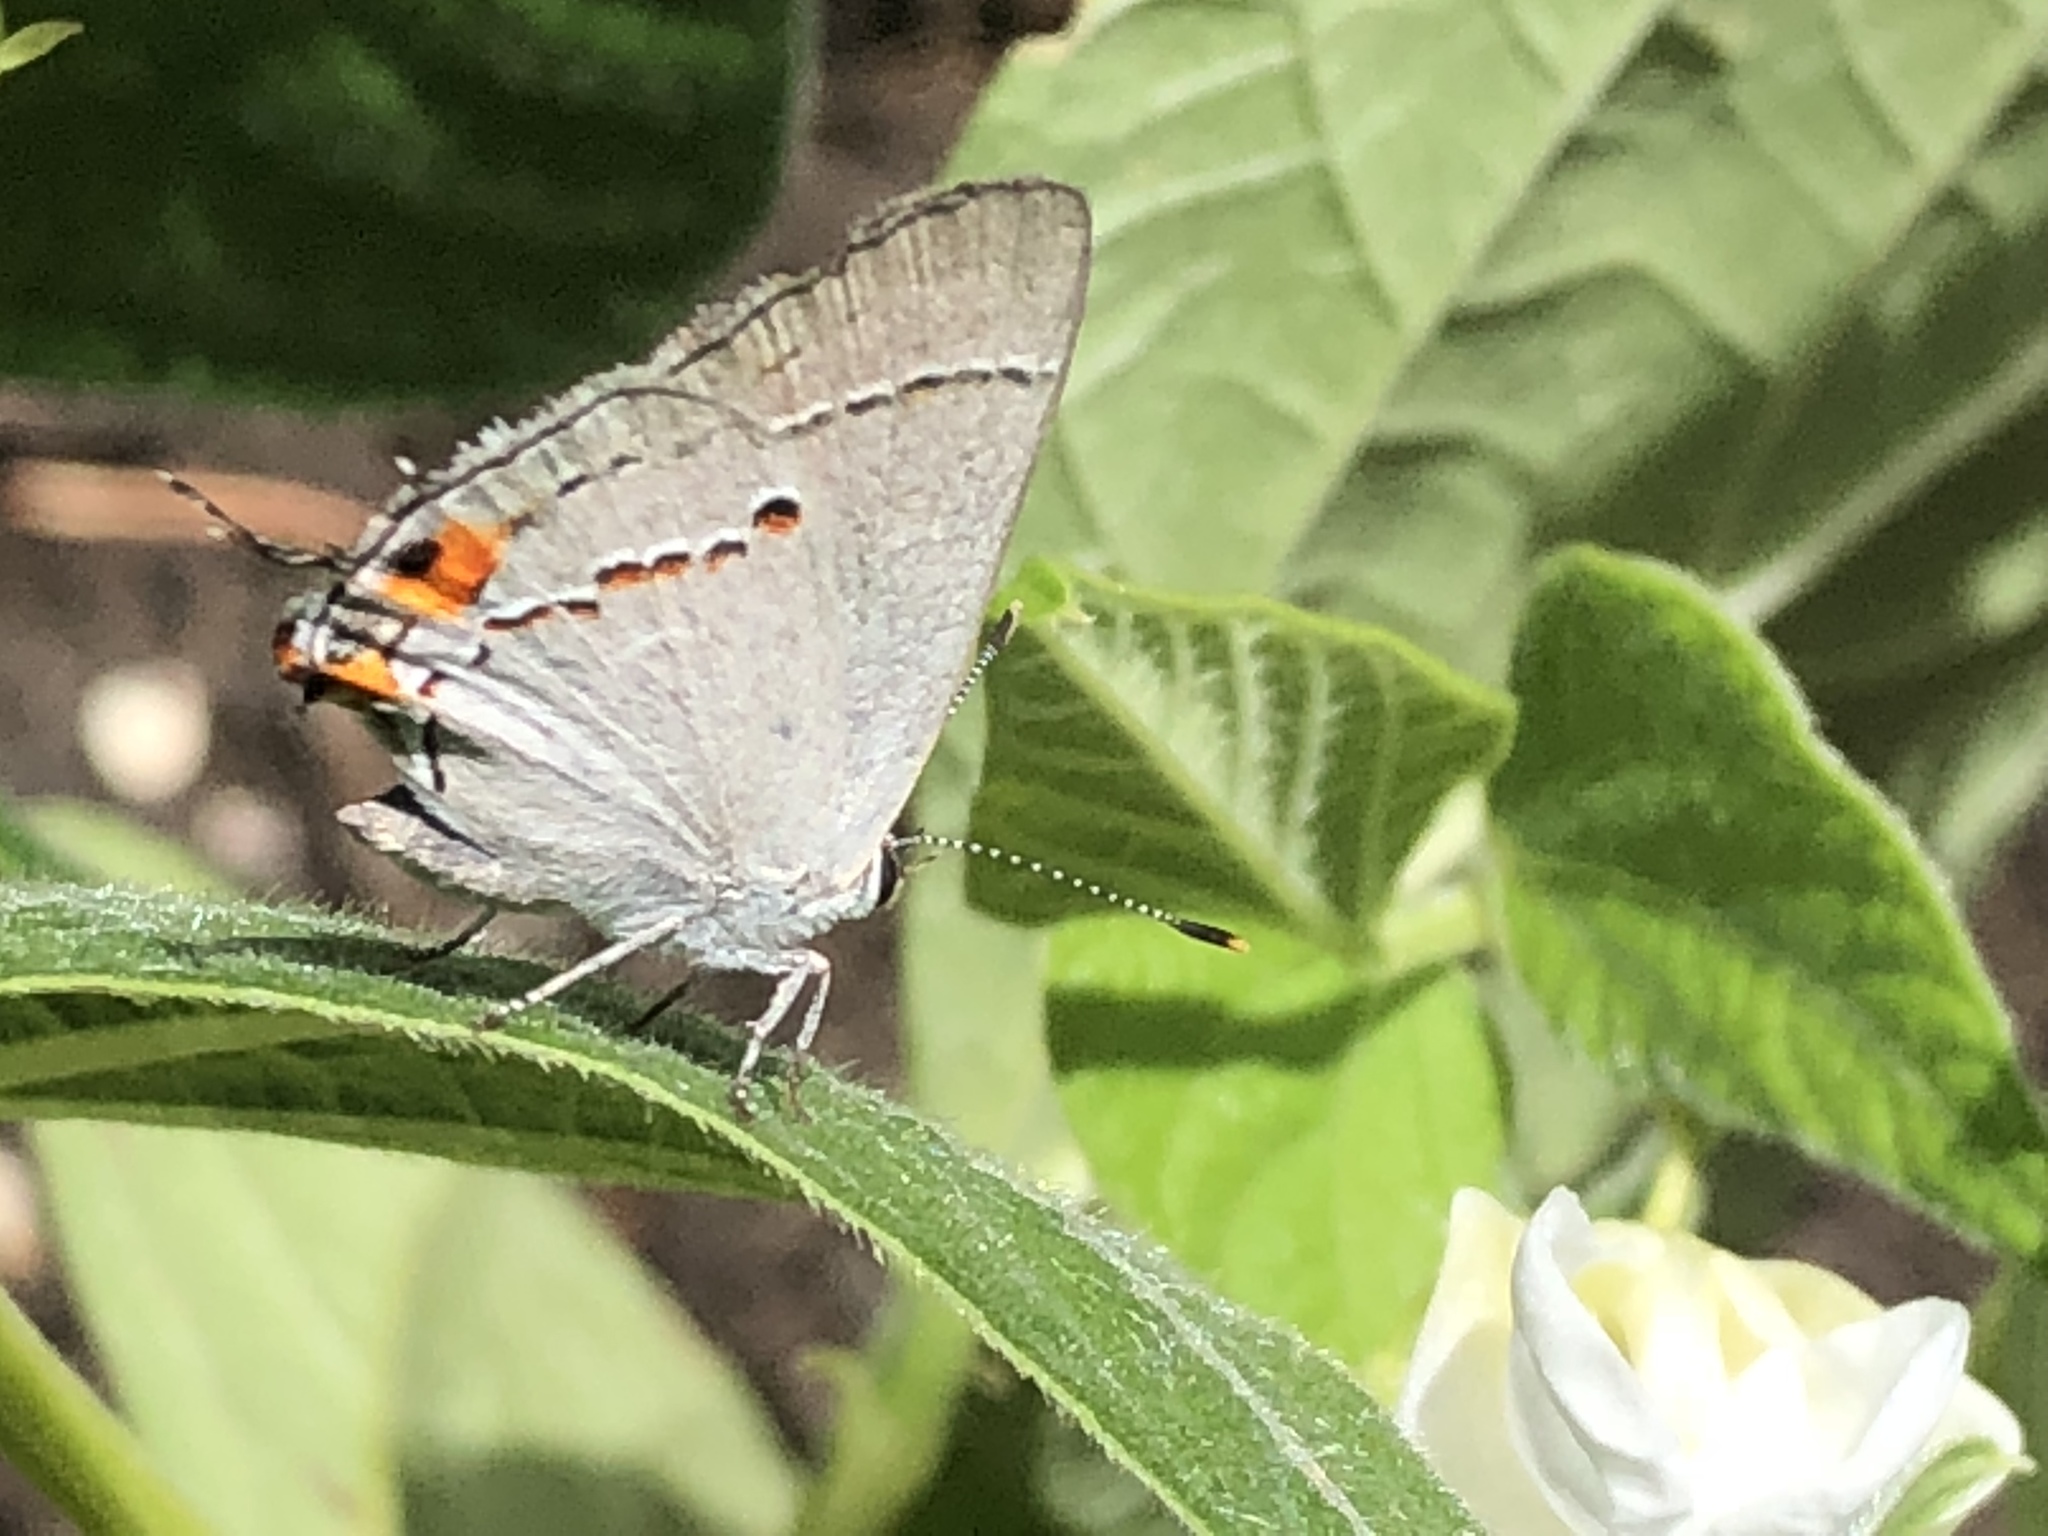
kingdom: Animalia
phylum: Arthropoda
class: Insecta
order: Lepidoptera
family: Lycaenidae
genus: Strymon
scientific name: Strymon melinus
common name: Gray hairstreak
